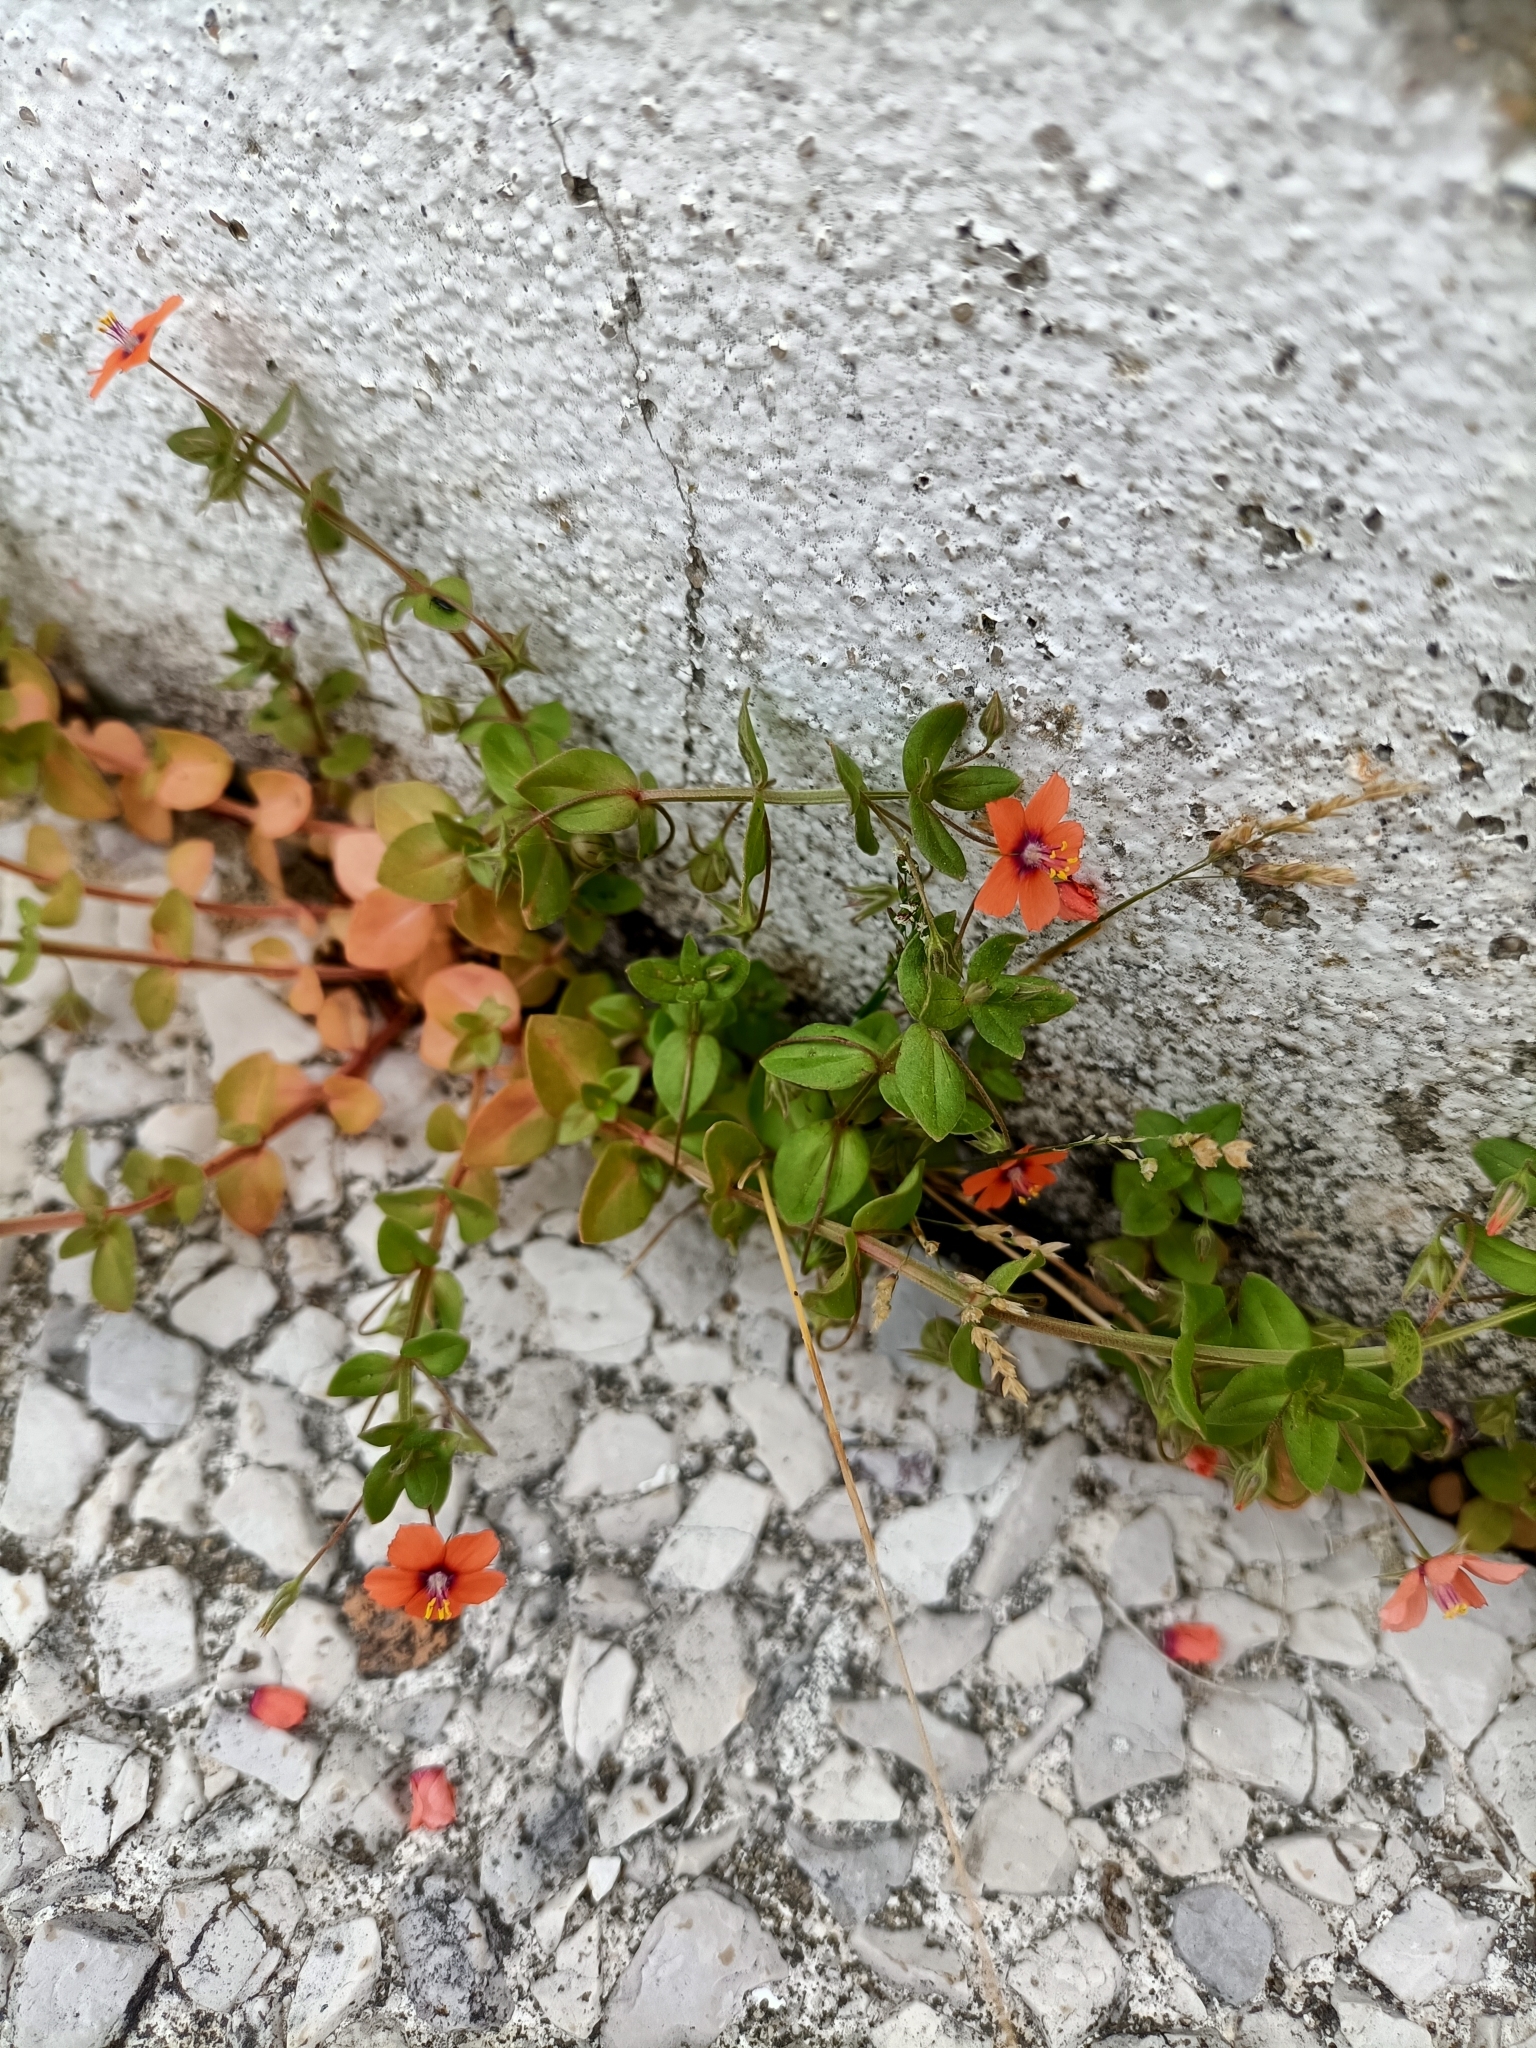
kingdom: Plantae
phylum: Tracheophyta
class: Magnoliopsida
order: Ericales
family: Primulaceae
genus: Lysimachia
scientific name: Lysimachia arvensis
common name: Scarlet pimpernel
